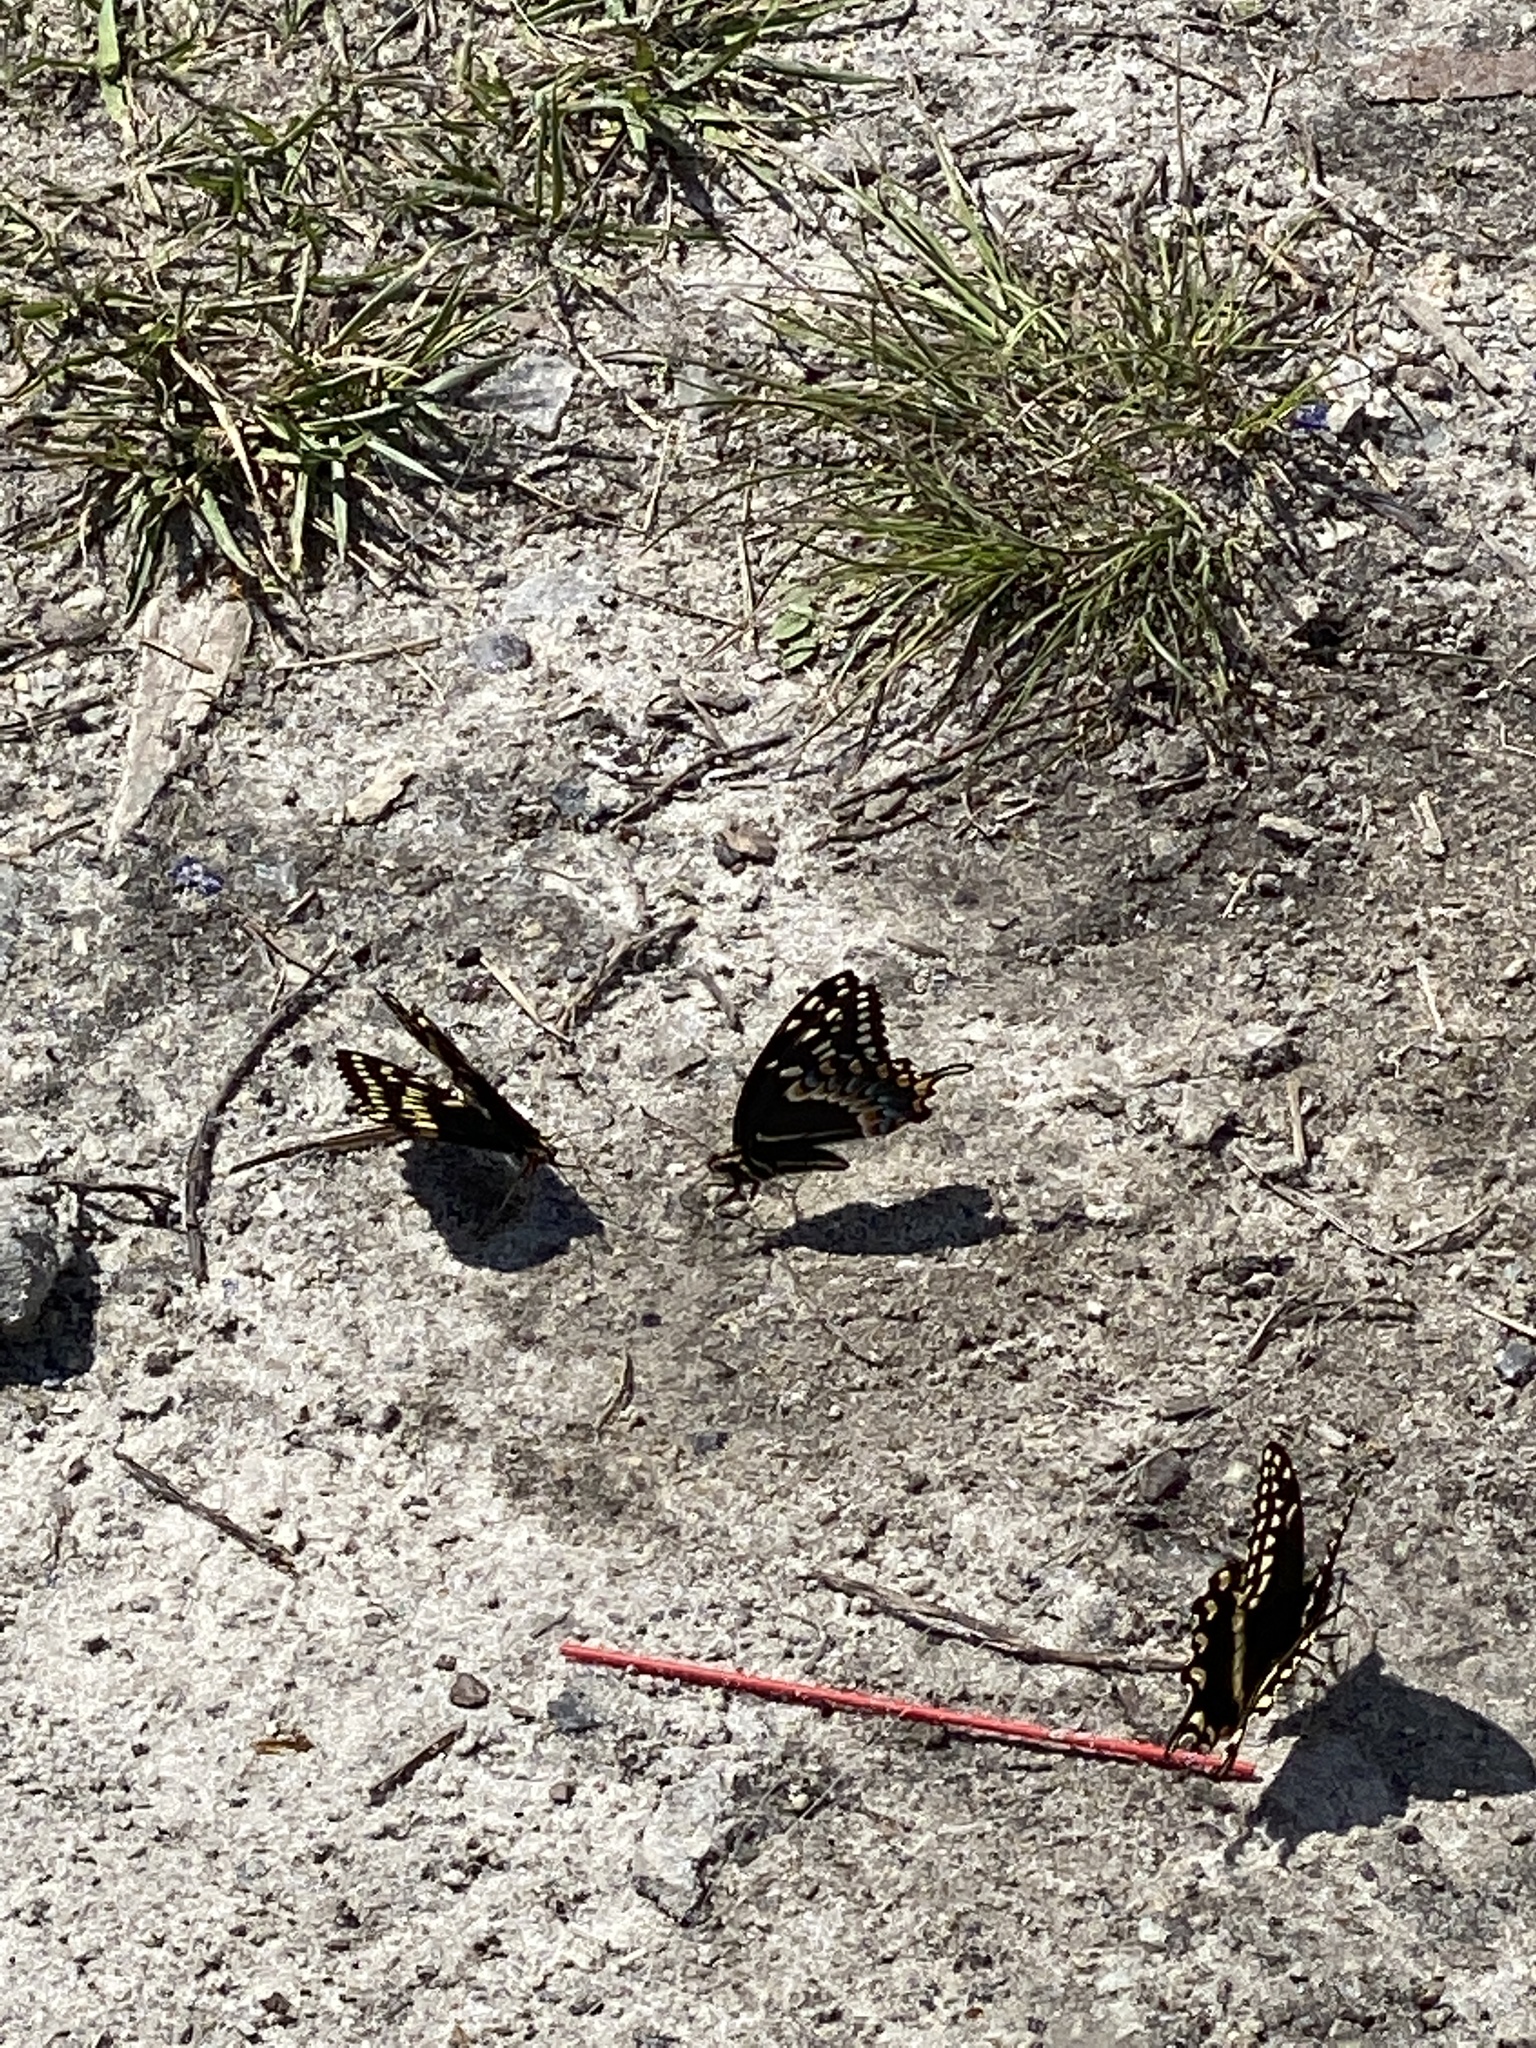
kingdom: Animalia
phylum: Arthropoda
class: Insecta
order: Lepidoptera
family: Papilionidae
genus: Papilio
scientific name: Papilio palamedes
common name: Palamedes swallowtail
